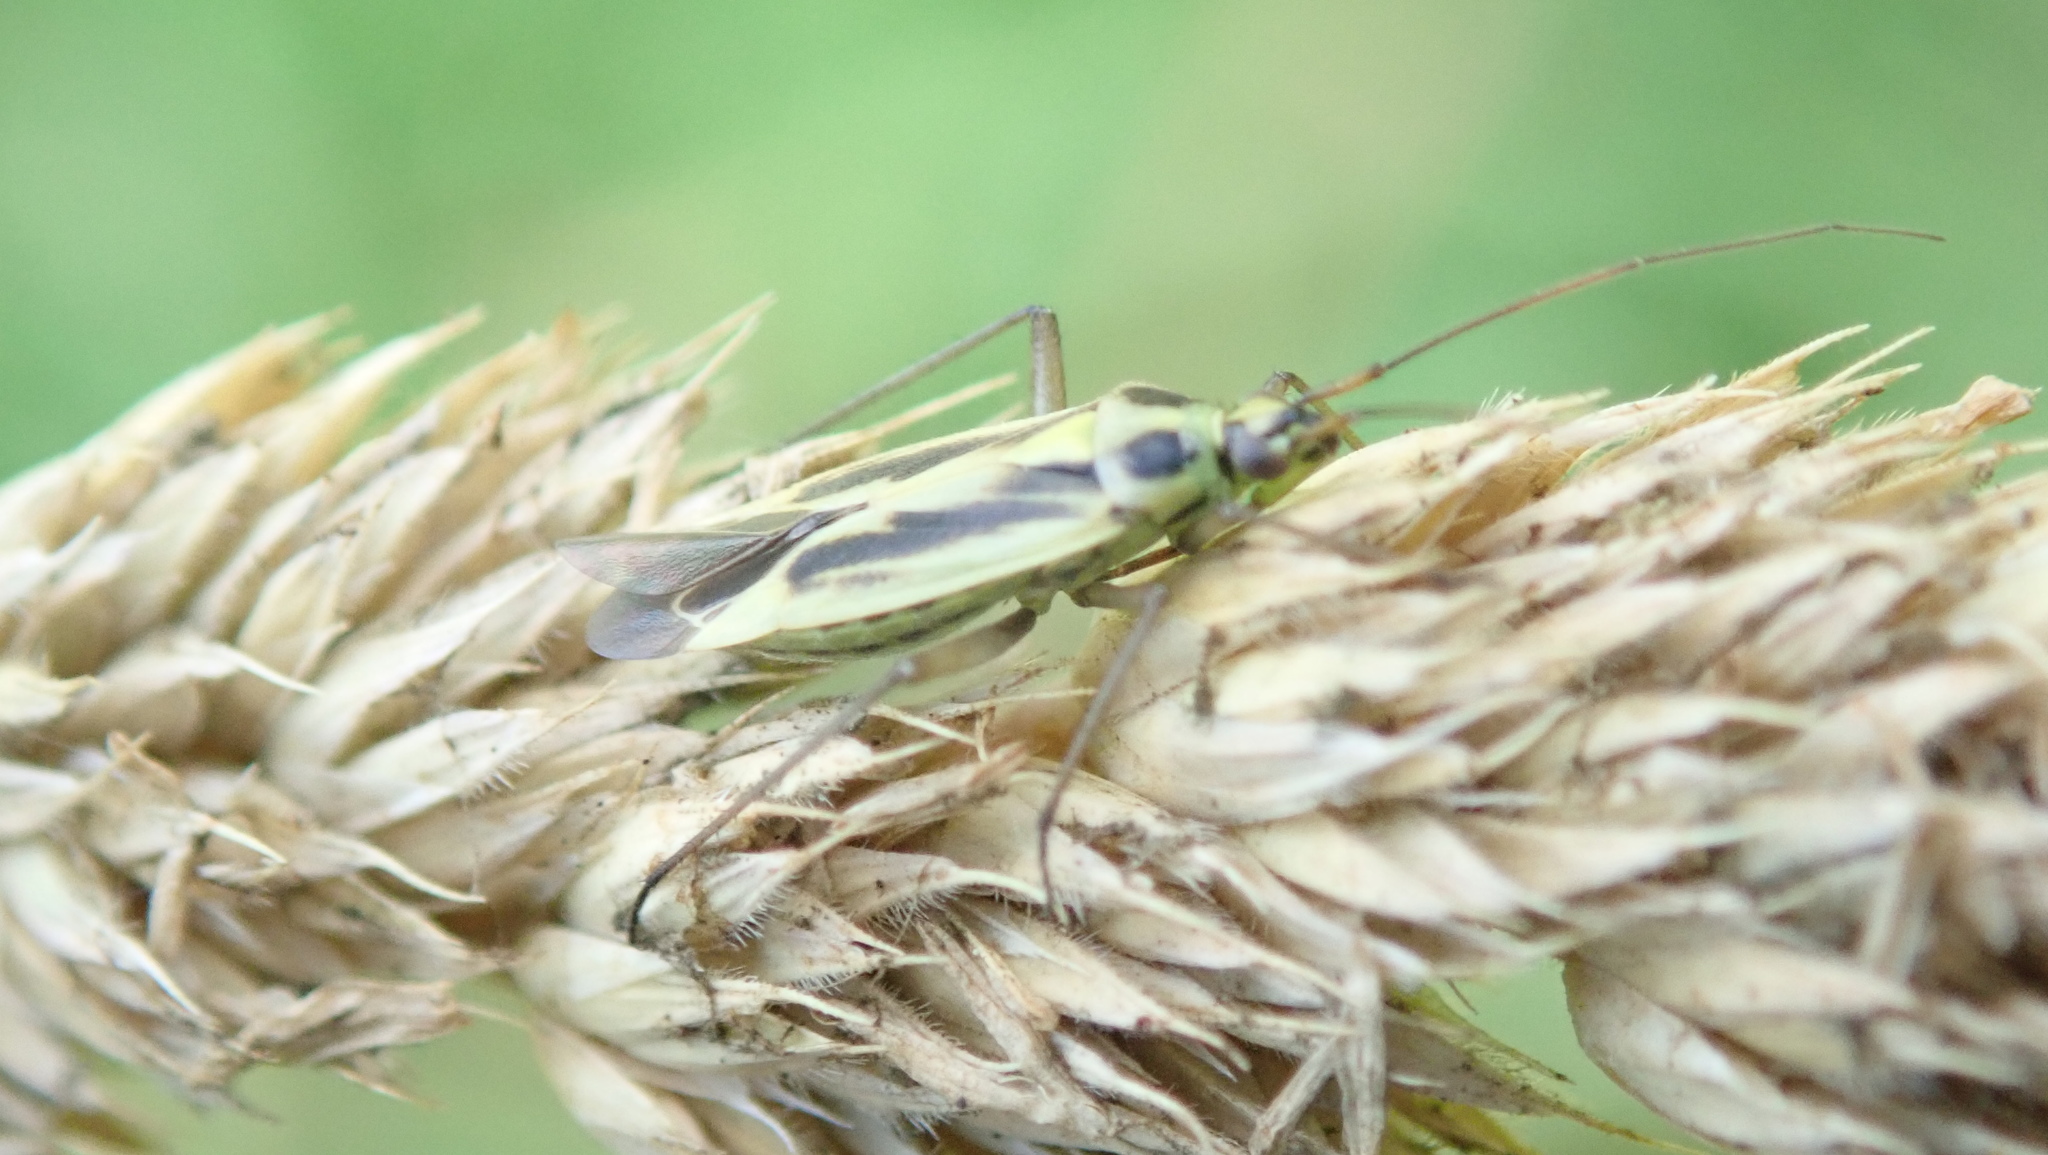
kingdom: Animalia
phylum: Arthropoda
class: Insecta
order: Hemiptera
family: Miridae
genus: Stenotus
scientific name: Stenotus binotatus
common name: Plant bug
